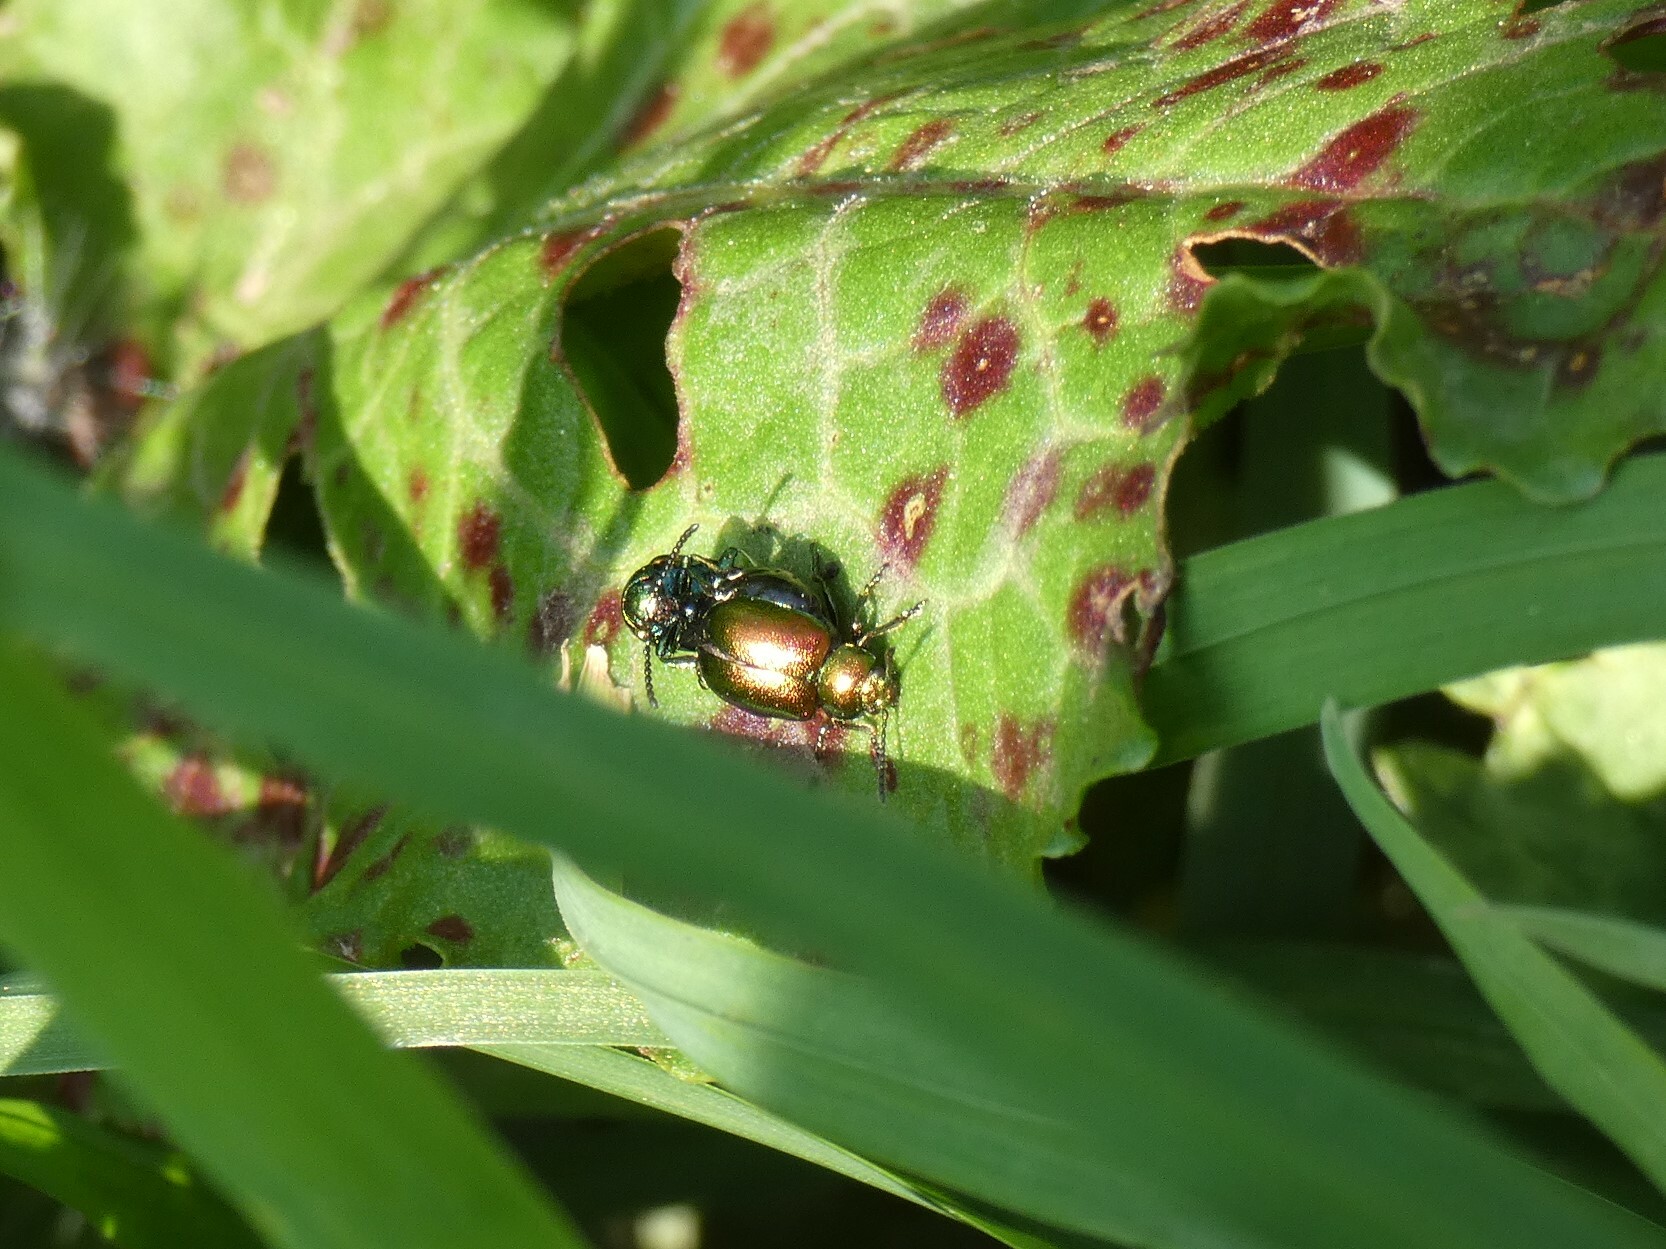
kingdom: Animalia
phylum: Arthropoda
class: Insecta
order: Coleoptera
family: Chrysomelidae
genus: Gastrophysa
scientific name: Gastrophysa viridula
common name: Green dock beetle
